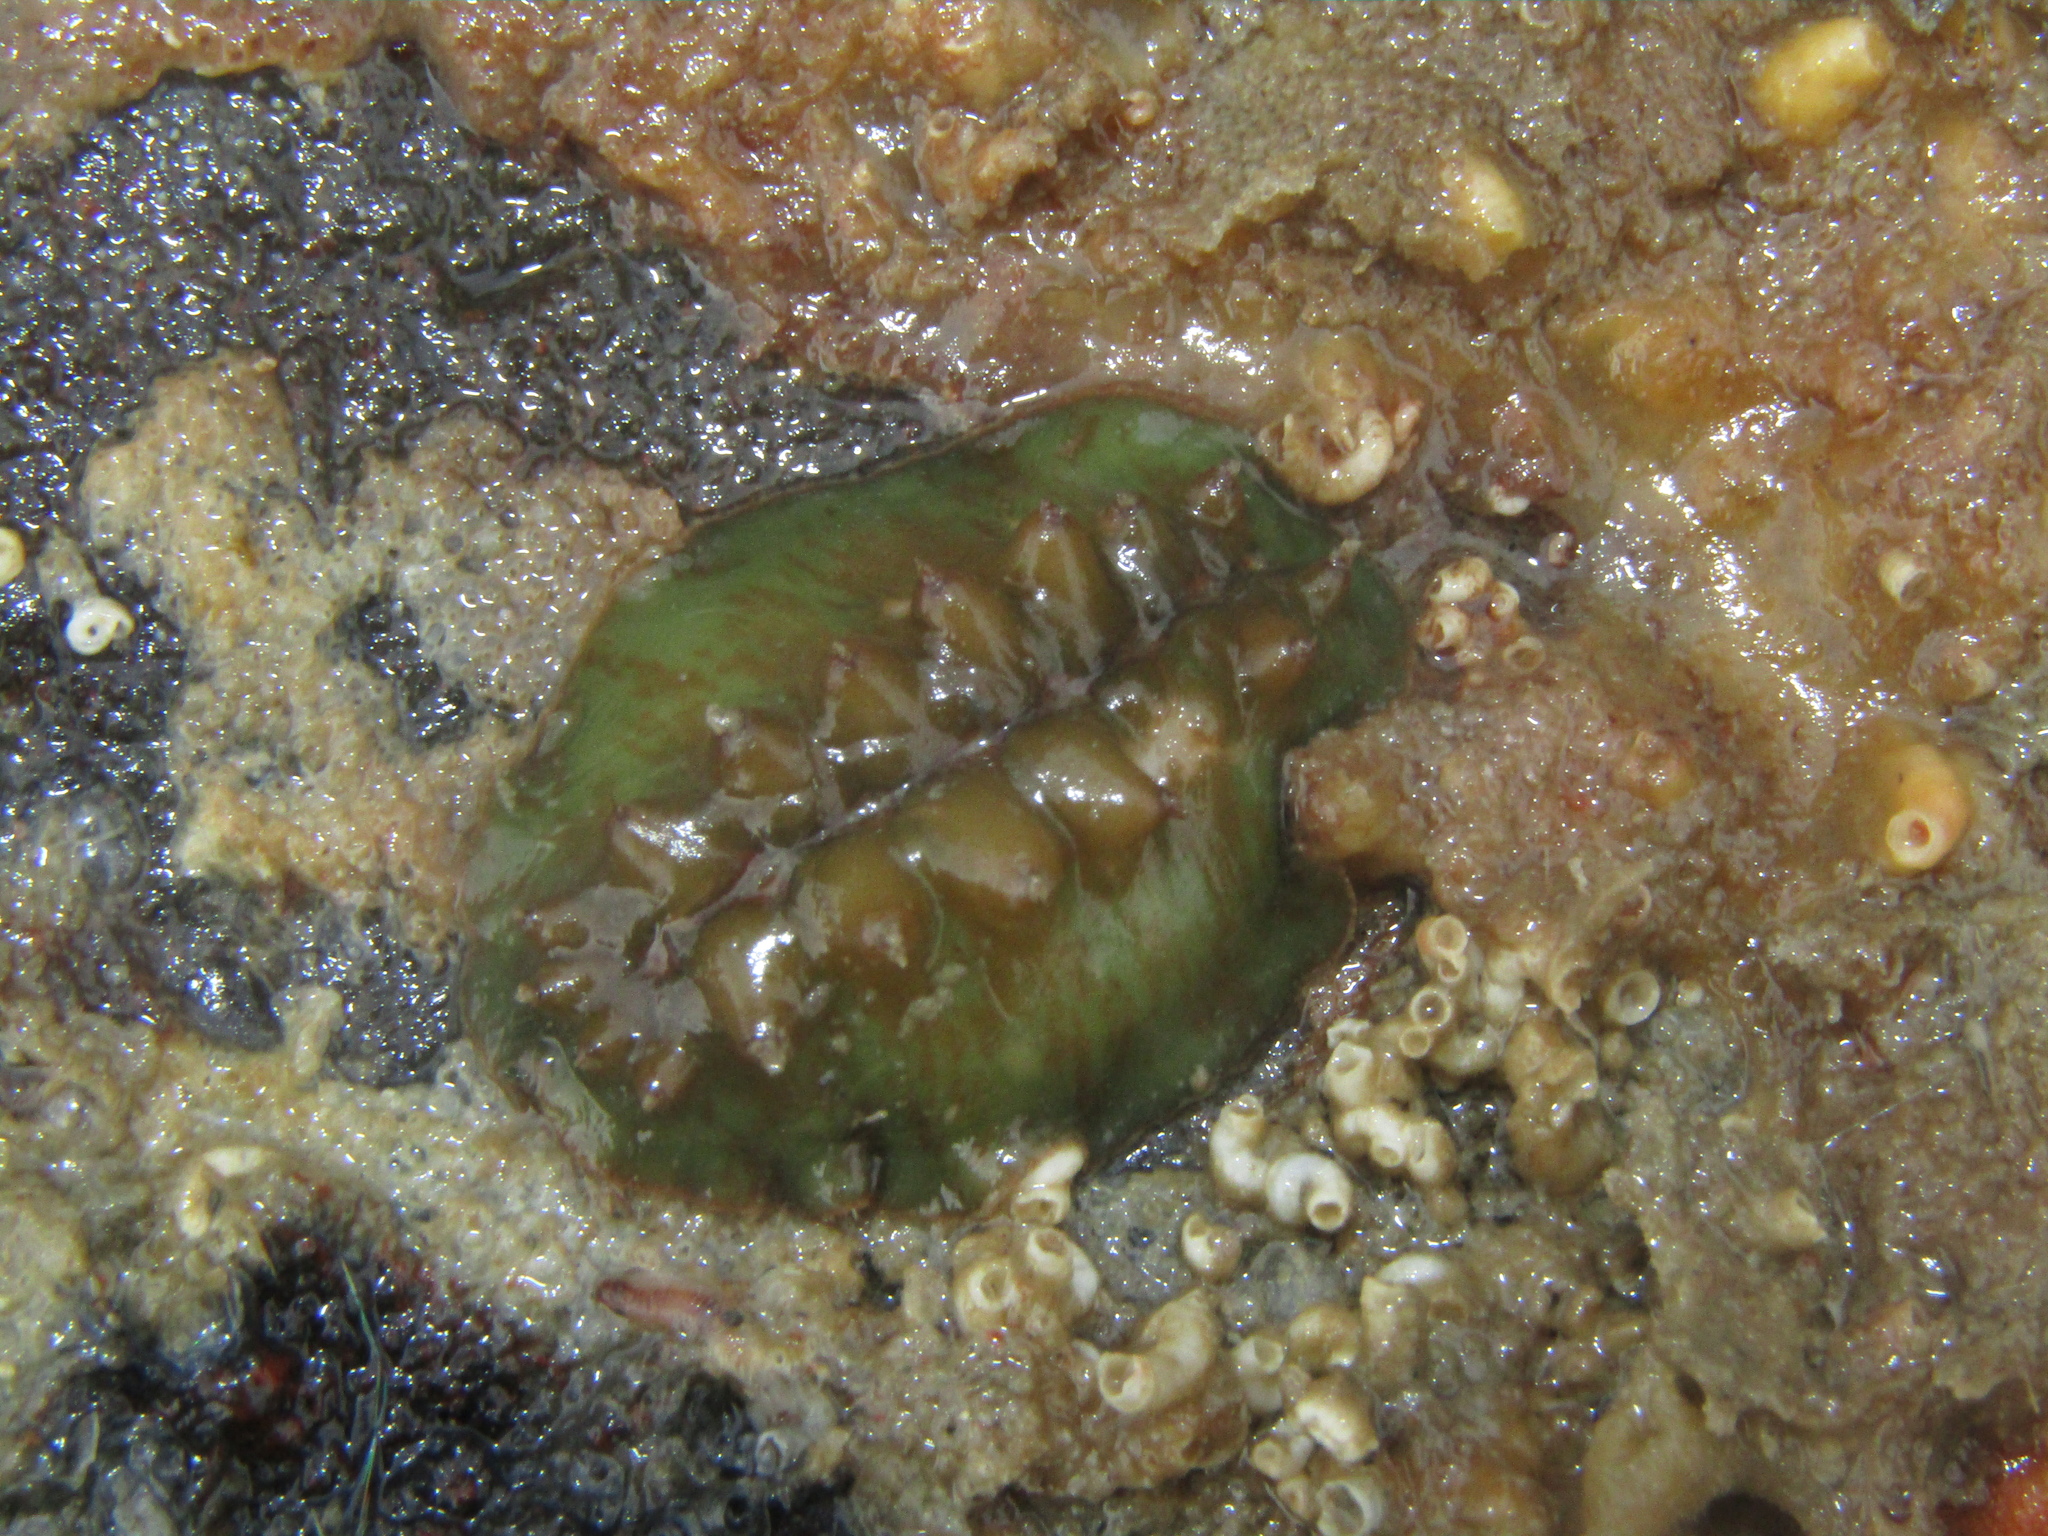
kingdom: Animalia
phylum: Mollusca
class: Polyplacophora
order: Chitonida
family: Acanthochitonidae
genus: Cryptoconchus
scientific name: Cryptoconchus porosus
